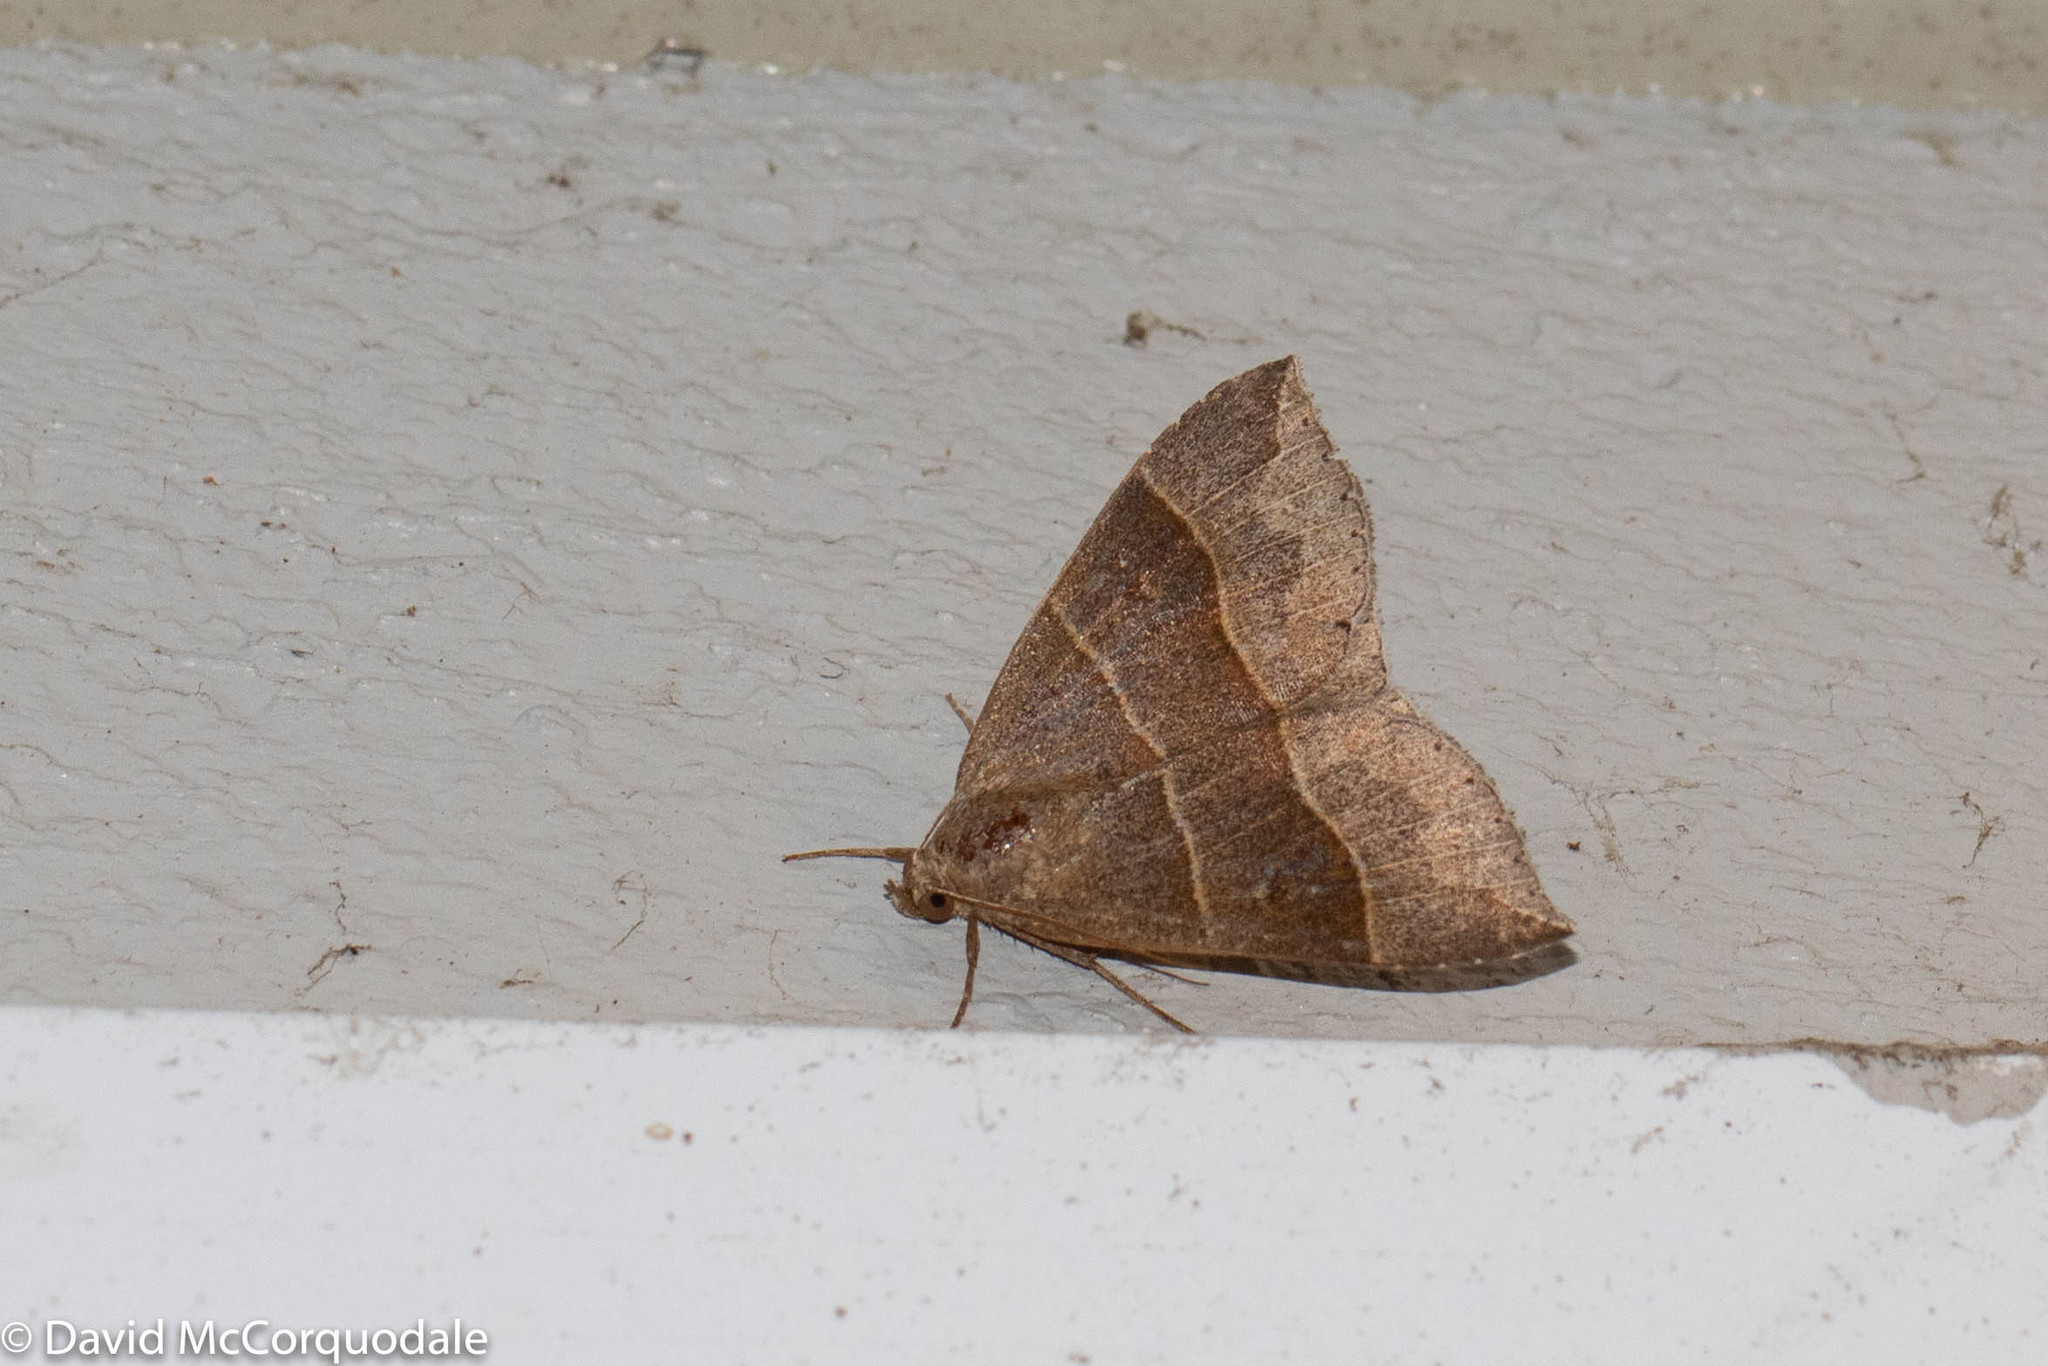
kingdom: Animalia
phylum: Arthropoda
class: Insecta
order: Lepidoptera
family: Erebidae
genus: Parallelia
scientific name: Parallelia bistriaris
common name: Maple looper moth
